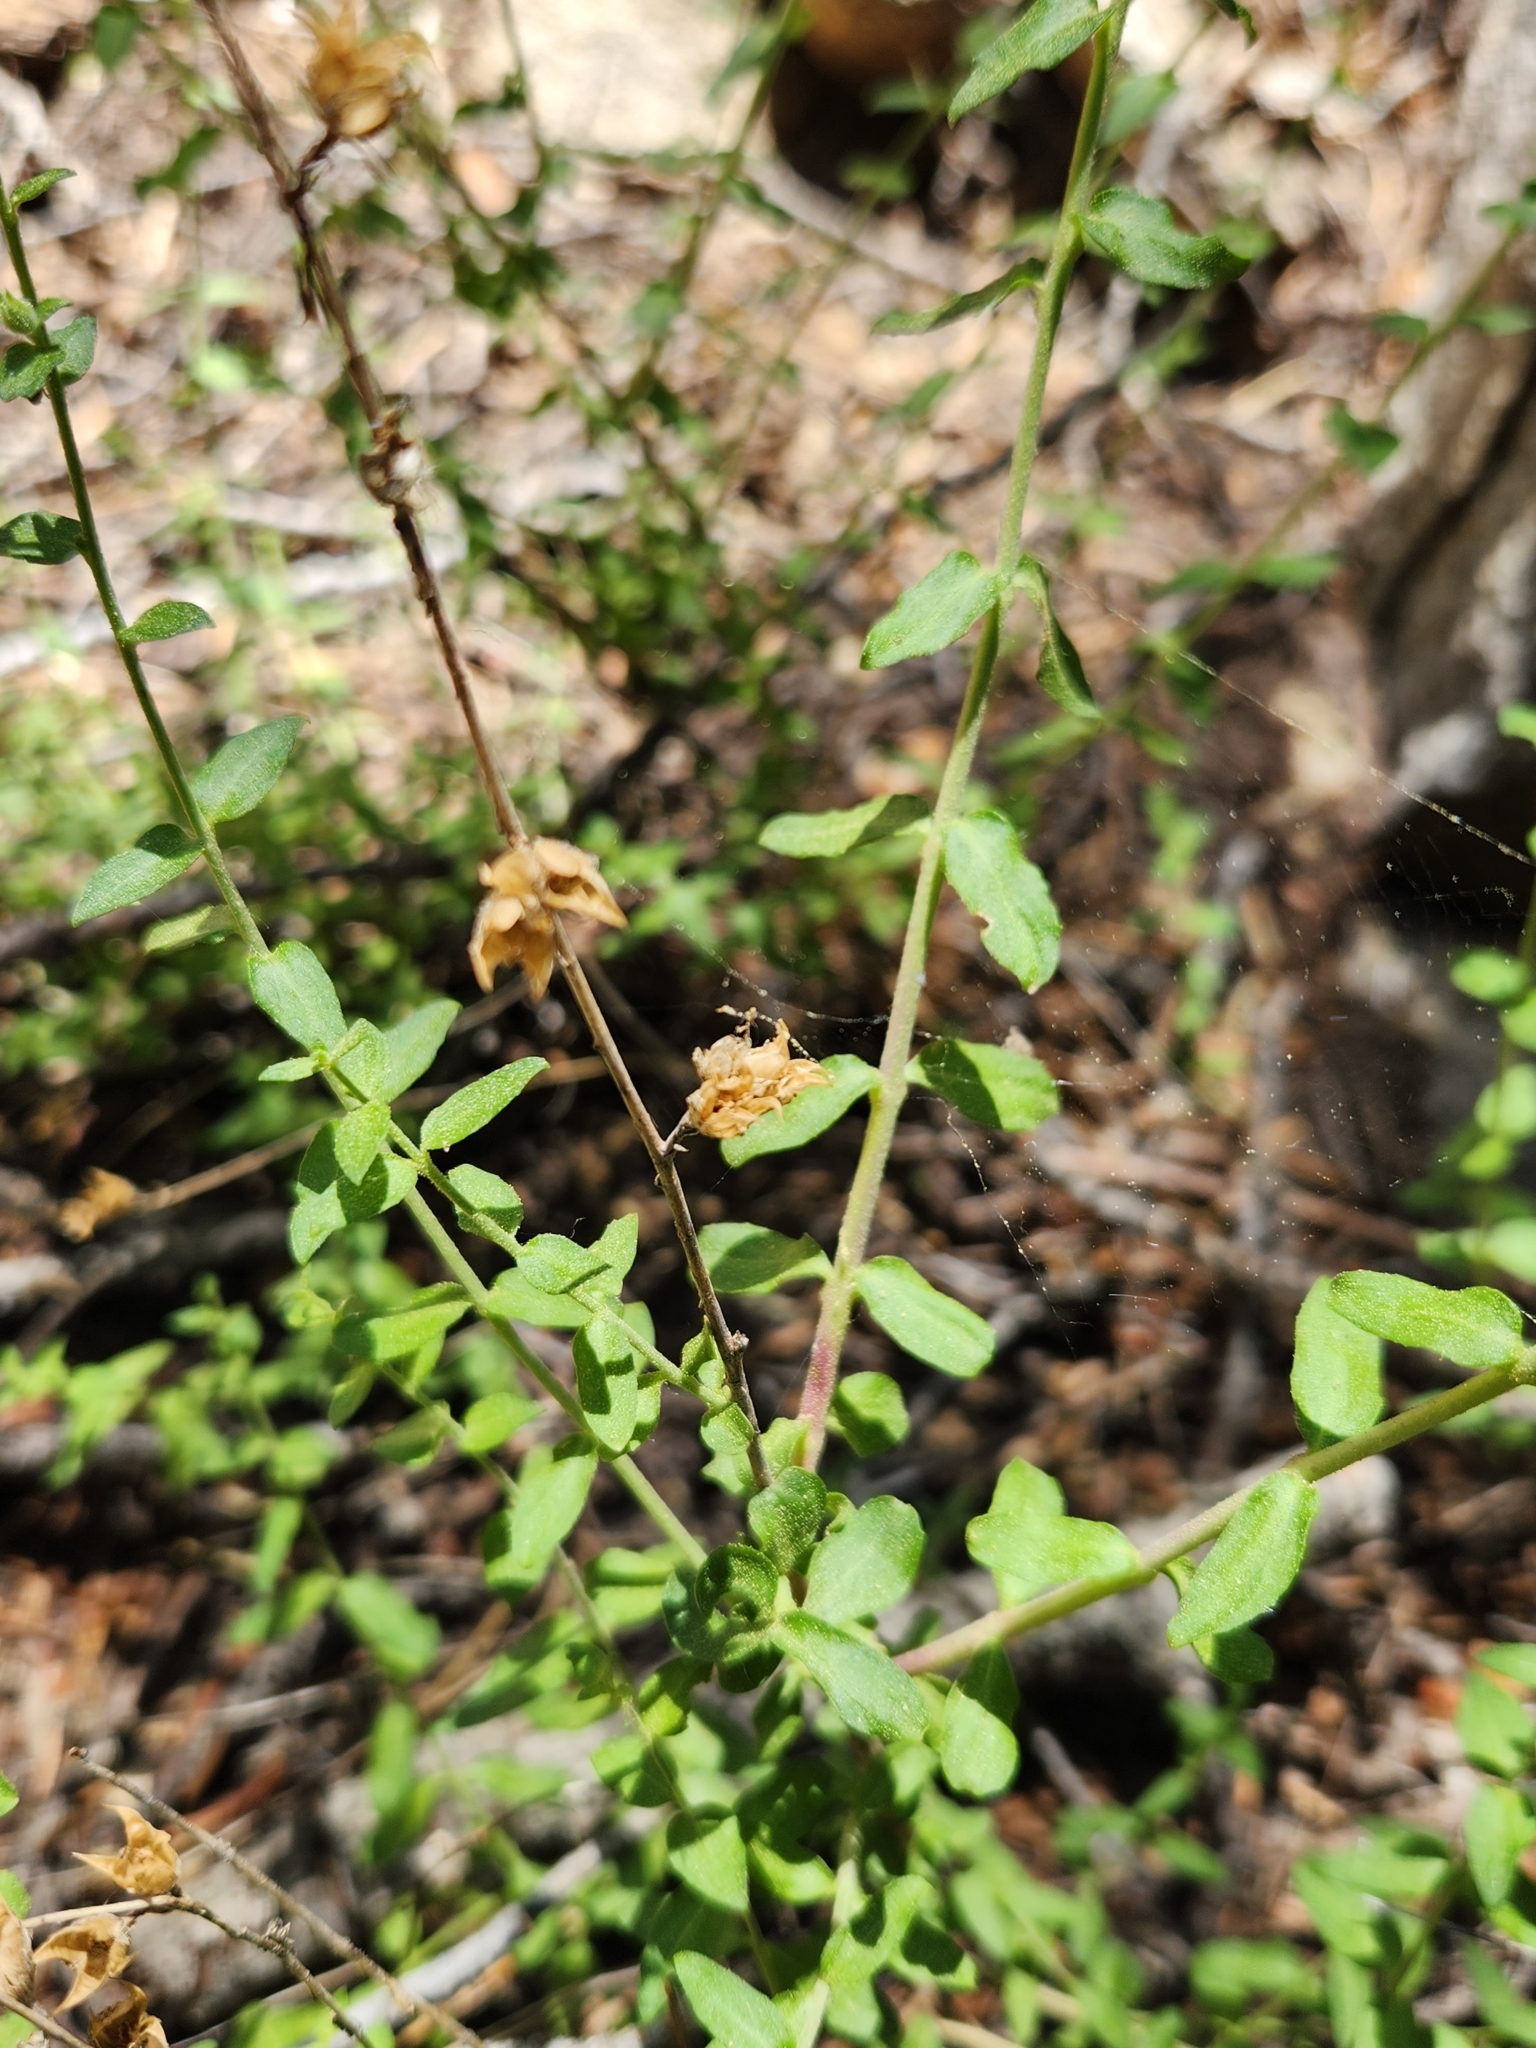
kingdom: Plantae
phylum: Tracheophyta
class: Magnoliopsida
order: Lamiales
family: Plantaginaceae
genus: Keckiella
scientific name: Keckiella rothrockii
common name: Rothrock's keckiella
